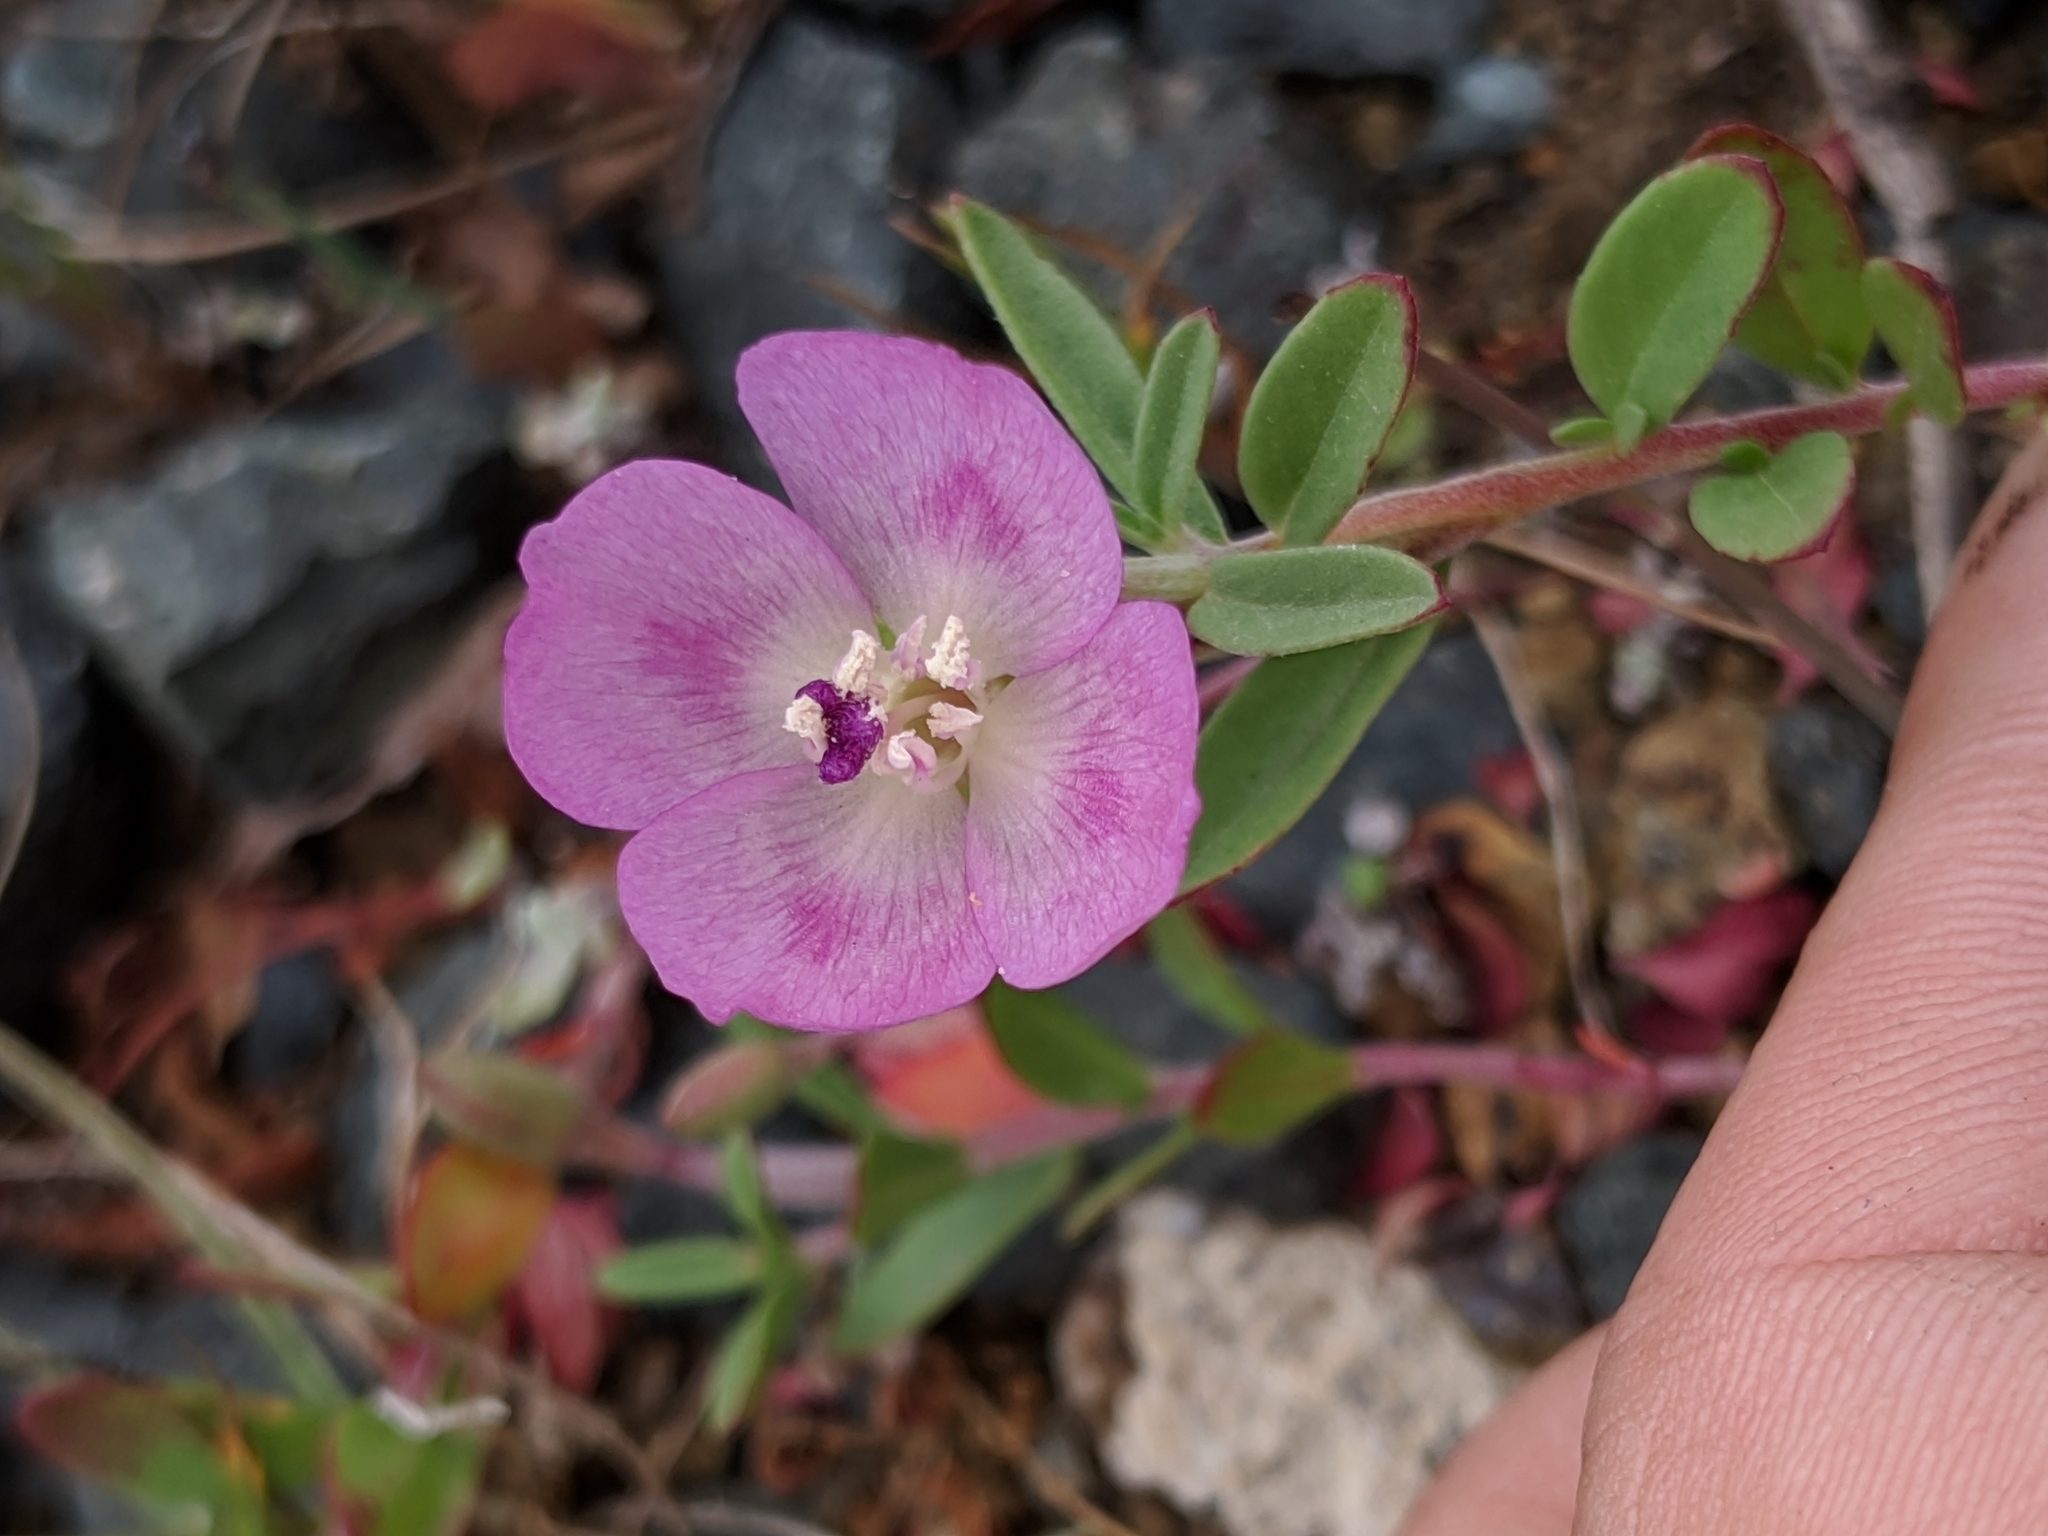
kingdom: Plantae
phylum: Tracheophyta
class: Magnoliopsida
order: Myrtales
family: Onagraceae
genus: Clarkia
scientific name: Clarkia prostrata
